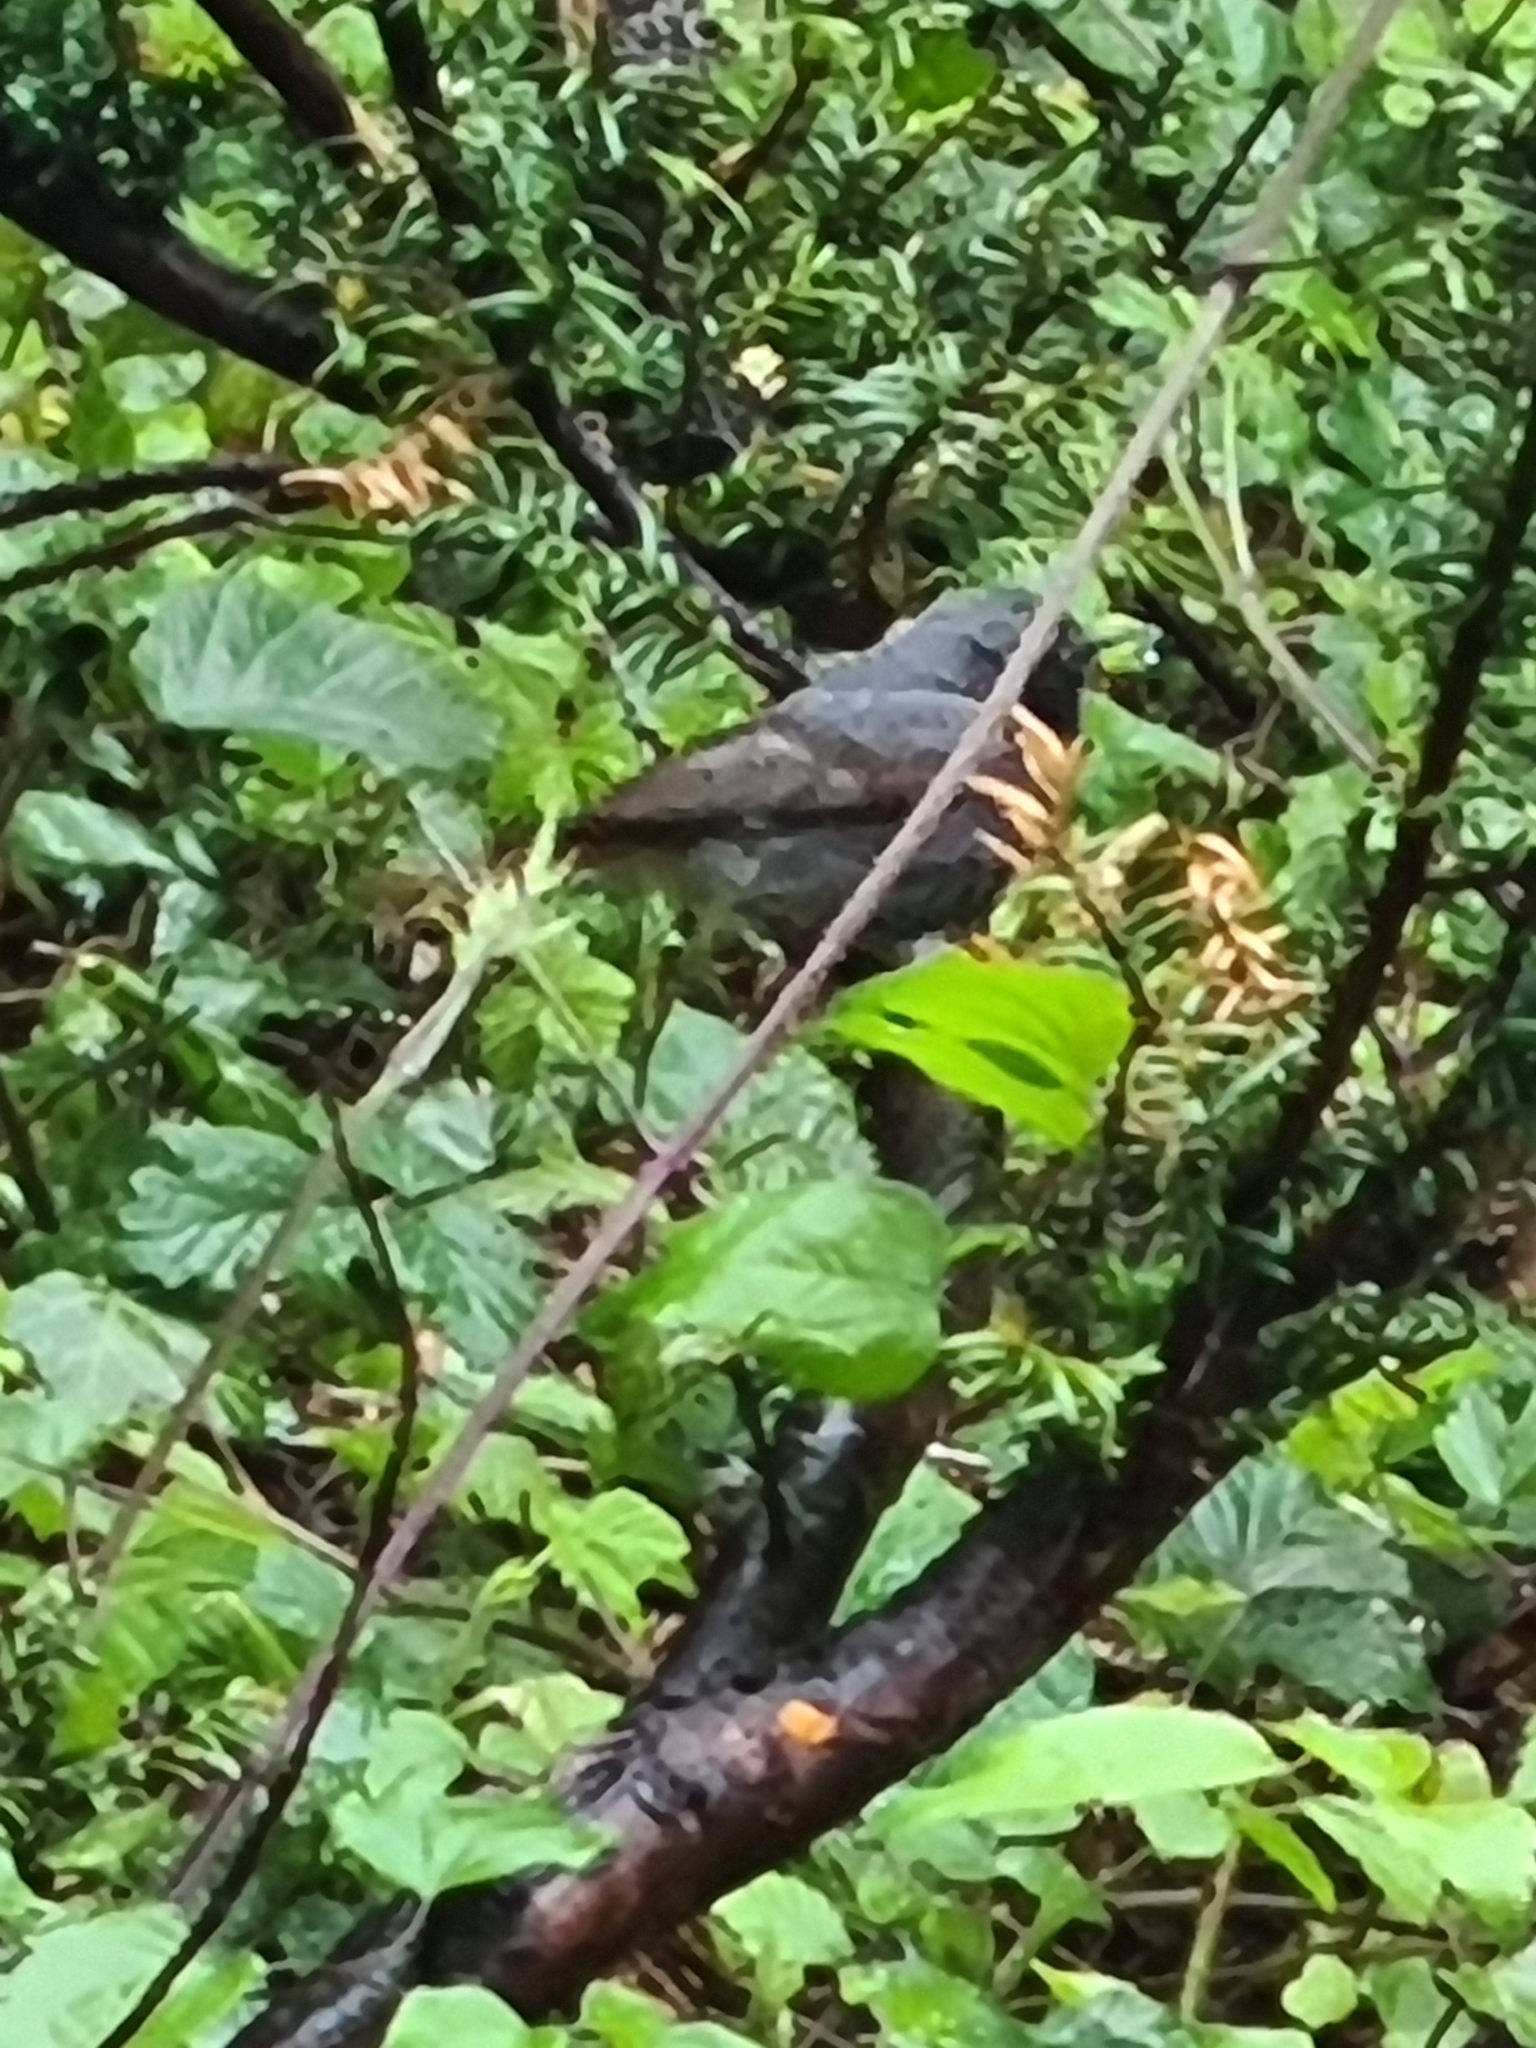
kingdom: Animalia
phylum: Chordata
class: Aves
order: Passeriformes
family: Muscicapidae
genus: Phoenicurus
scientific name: Phoenicurus ochruros
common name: Black redstart
